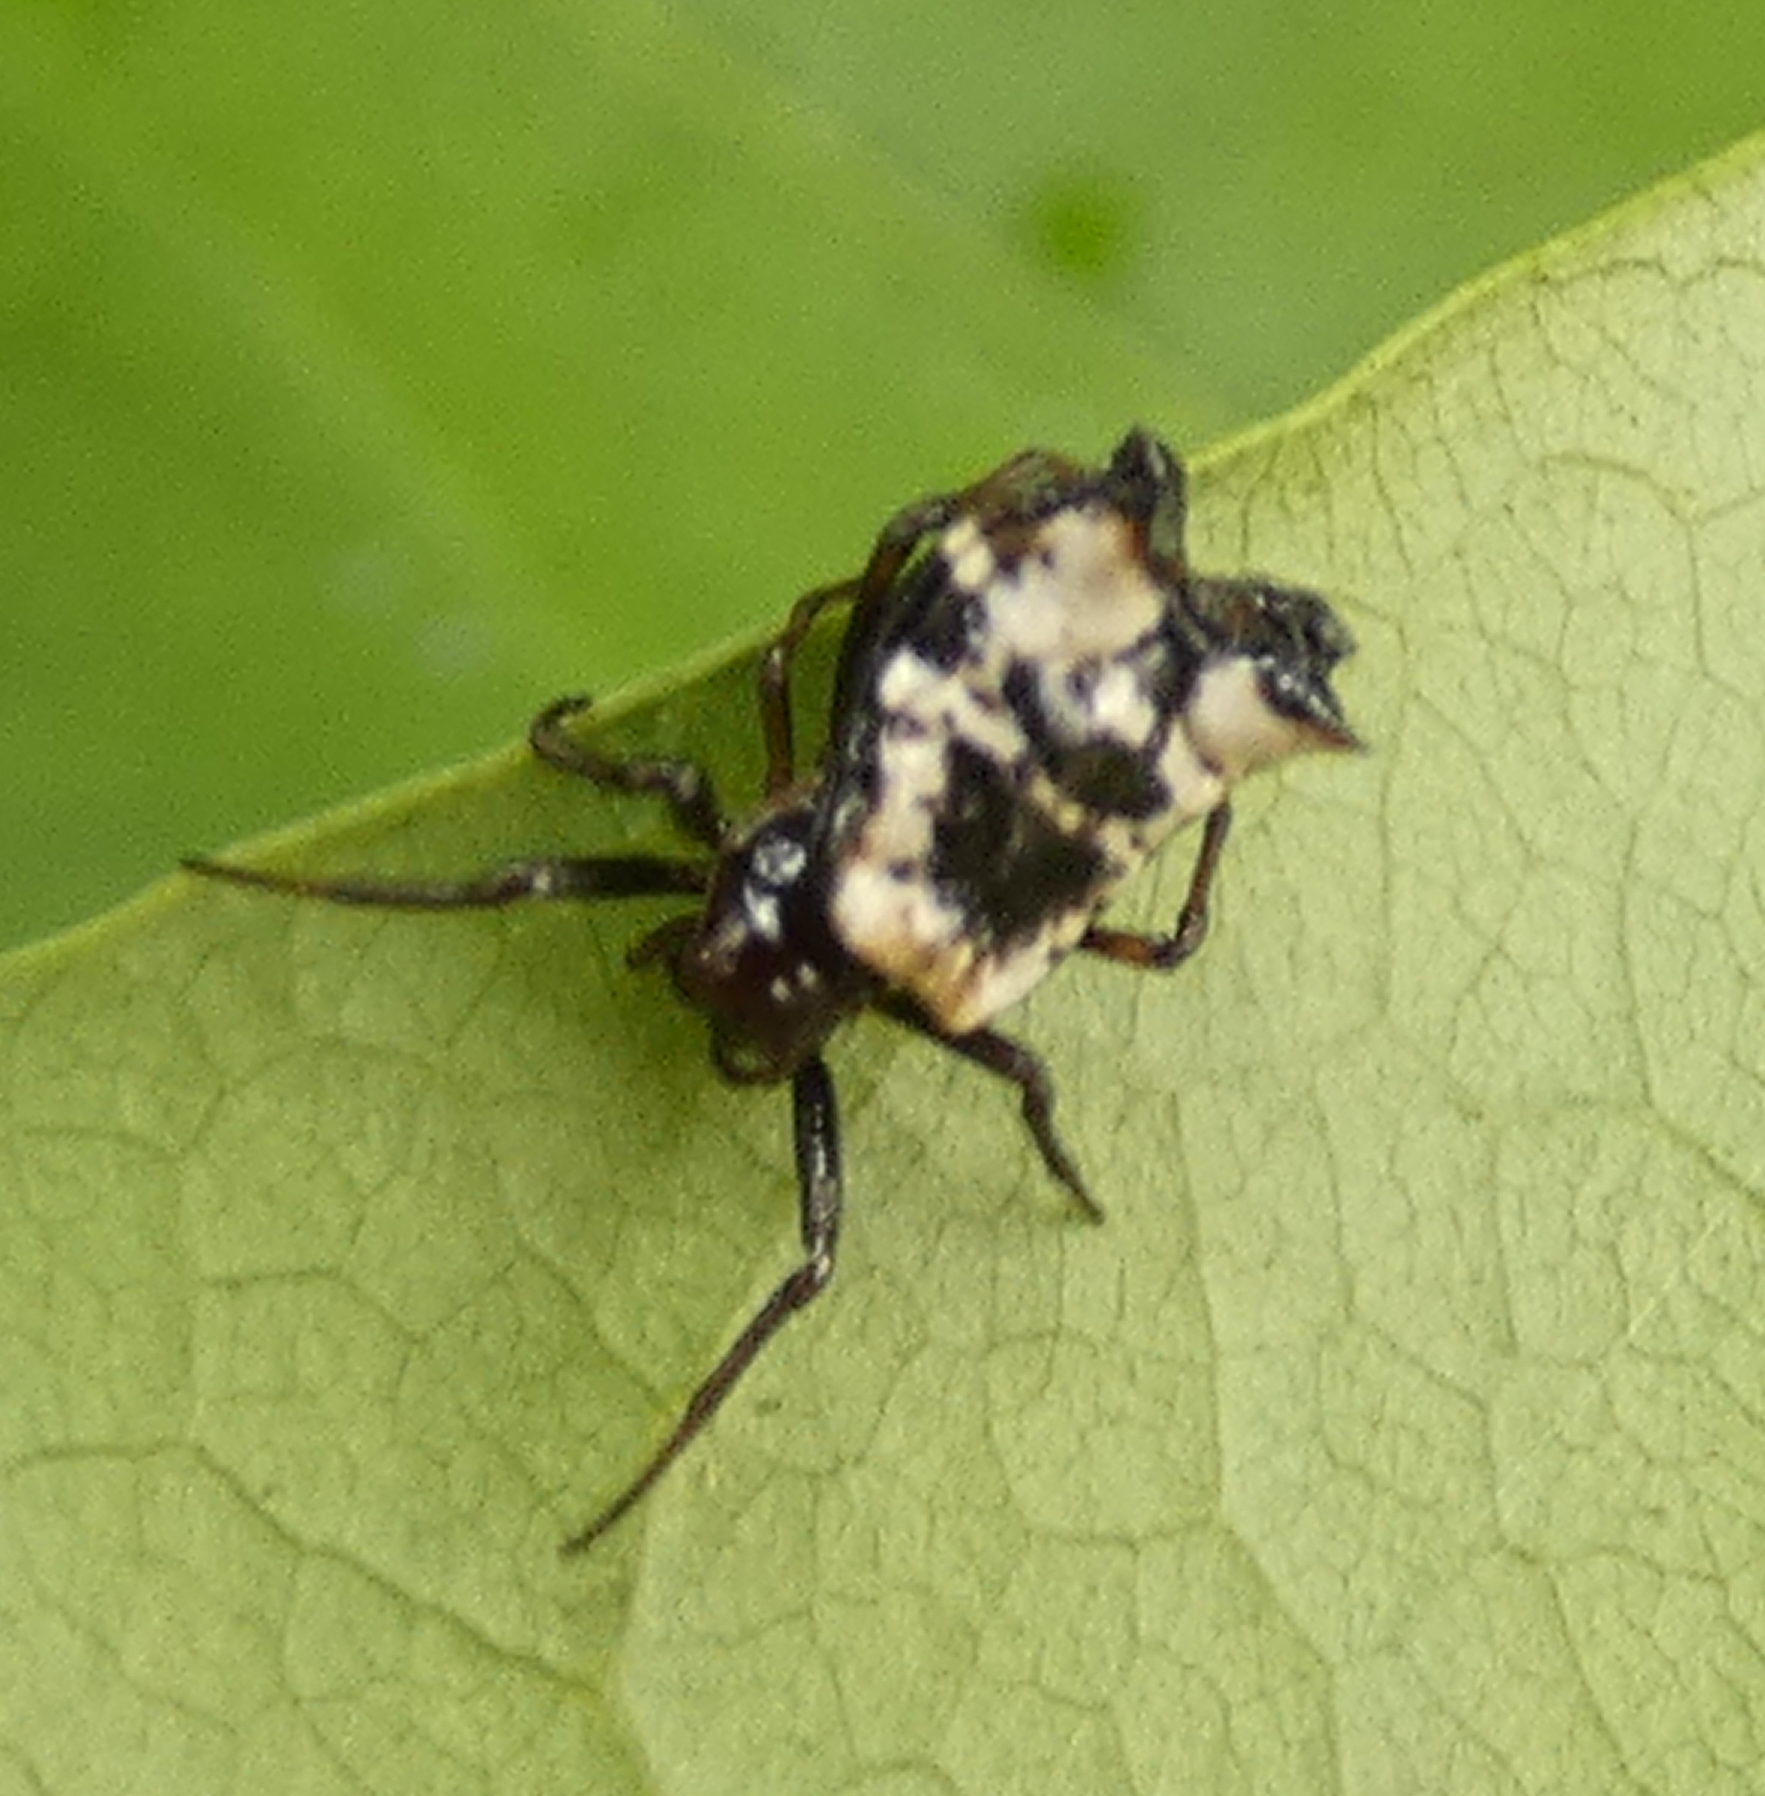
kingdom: Animalia
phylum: Arthropoda
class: Arachnida
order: Araneae
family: Araneidae
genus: Micrathena
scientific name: Micrathena patruelis
